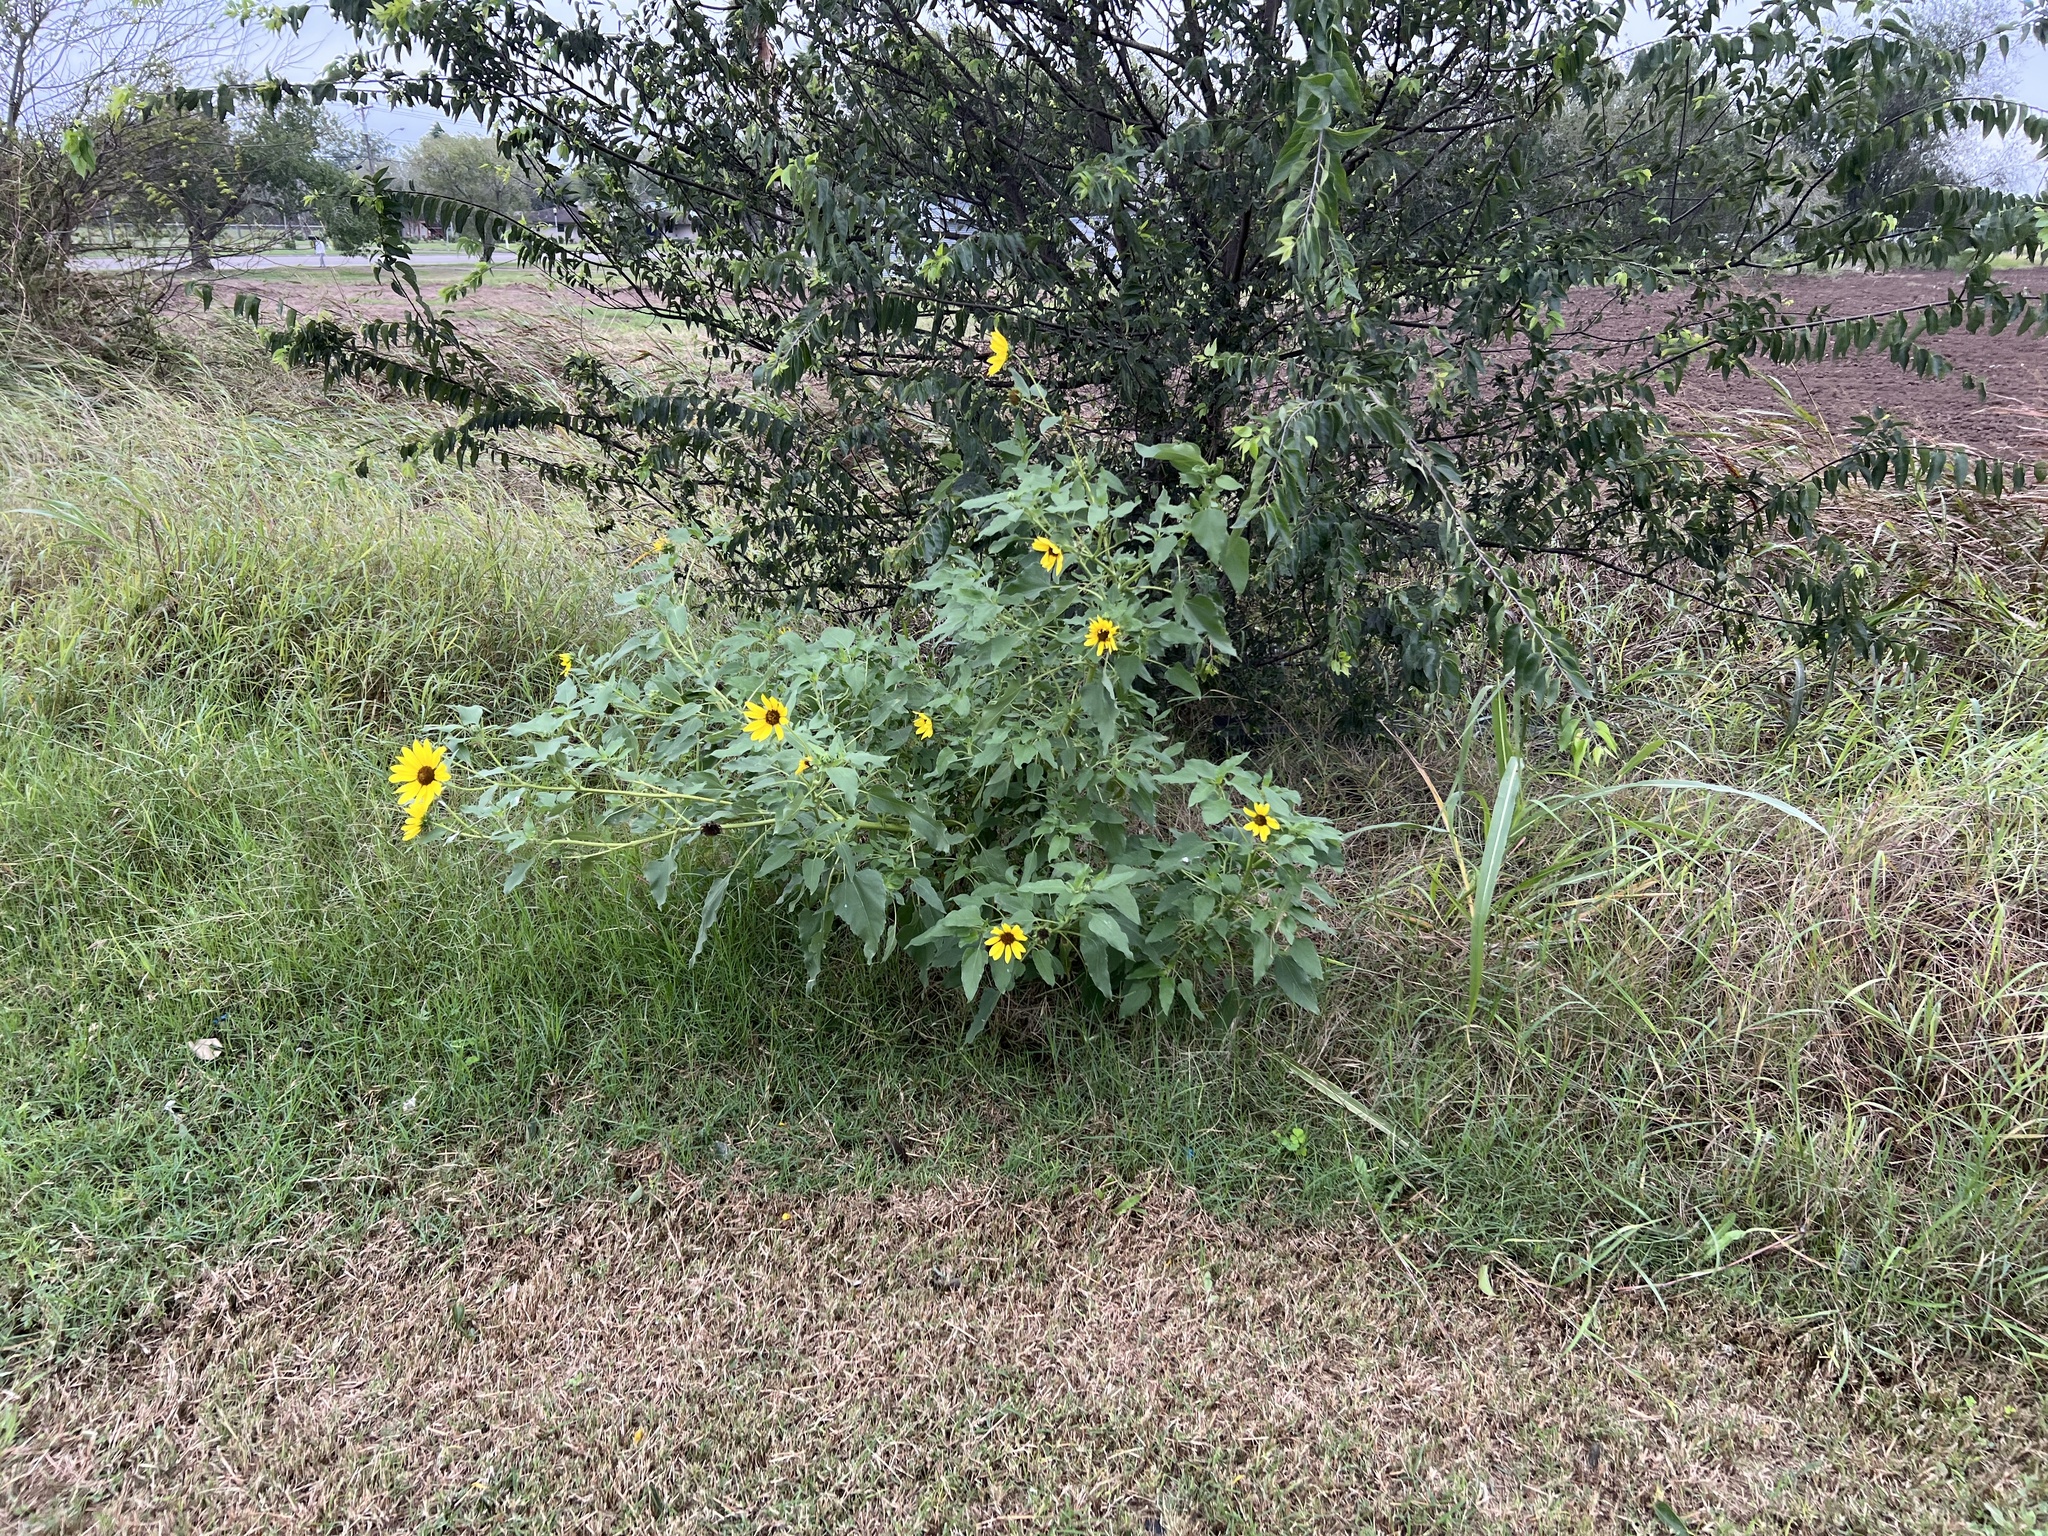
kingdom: Plantae
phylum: Tracheophyta
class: Magnoliopsida
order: Asterales
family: Asteraceae
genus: Helianthus
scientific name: Helianthus annuus
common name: Sunflower
